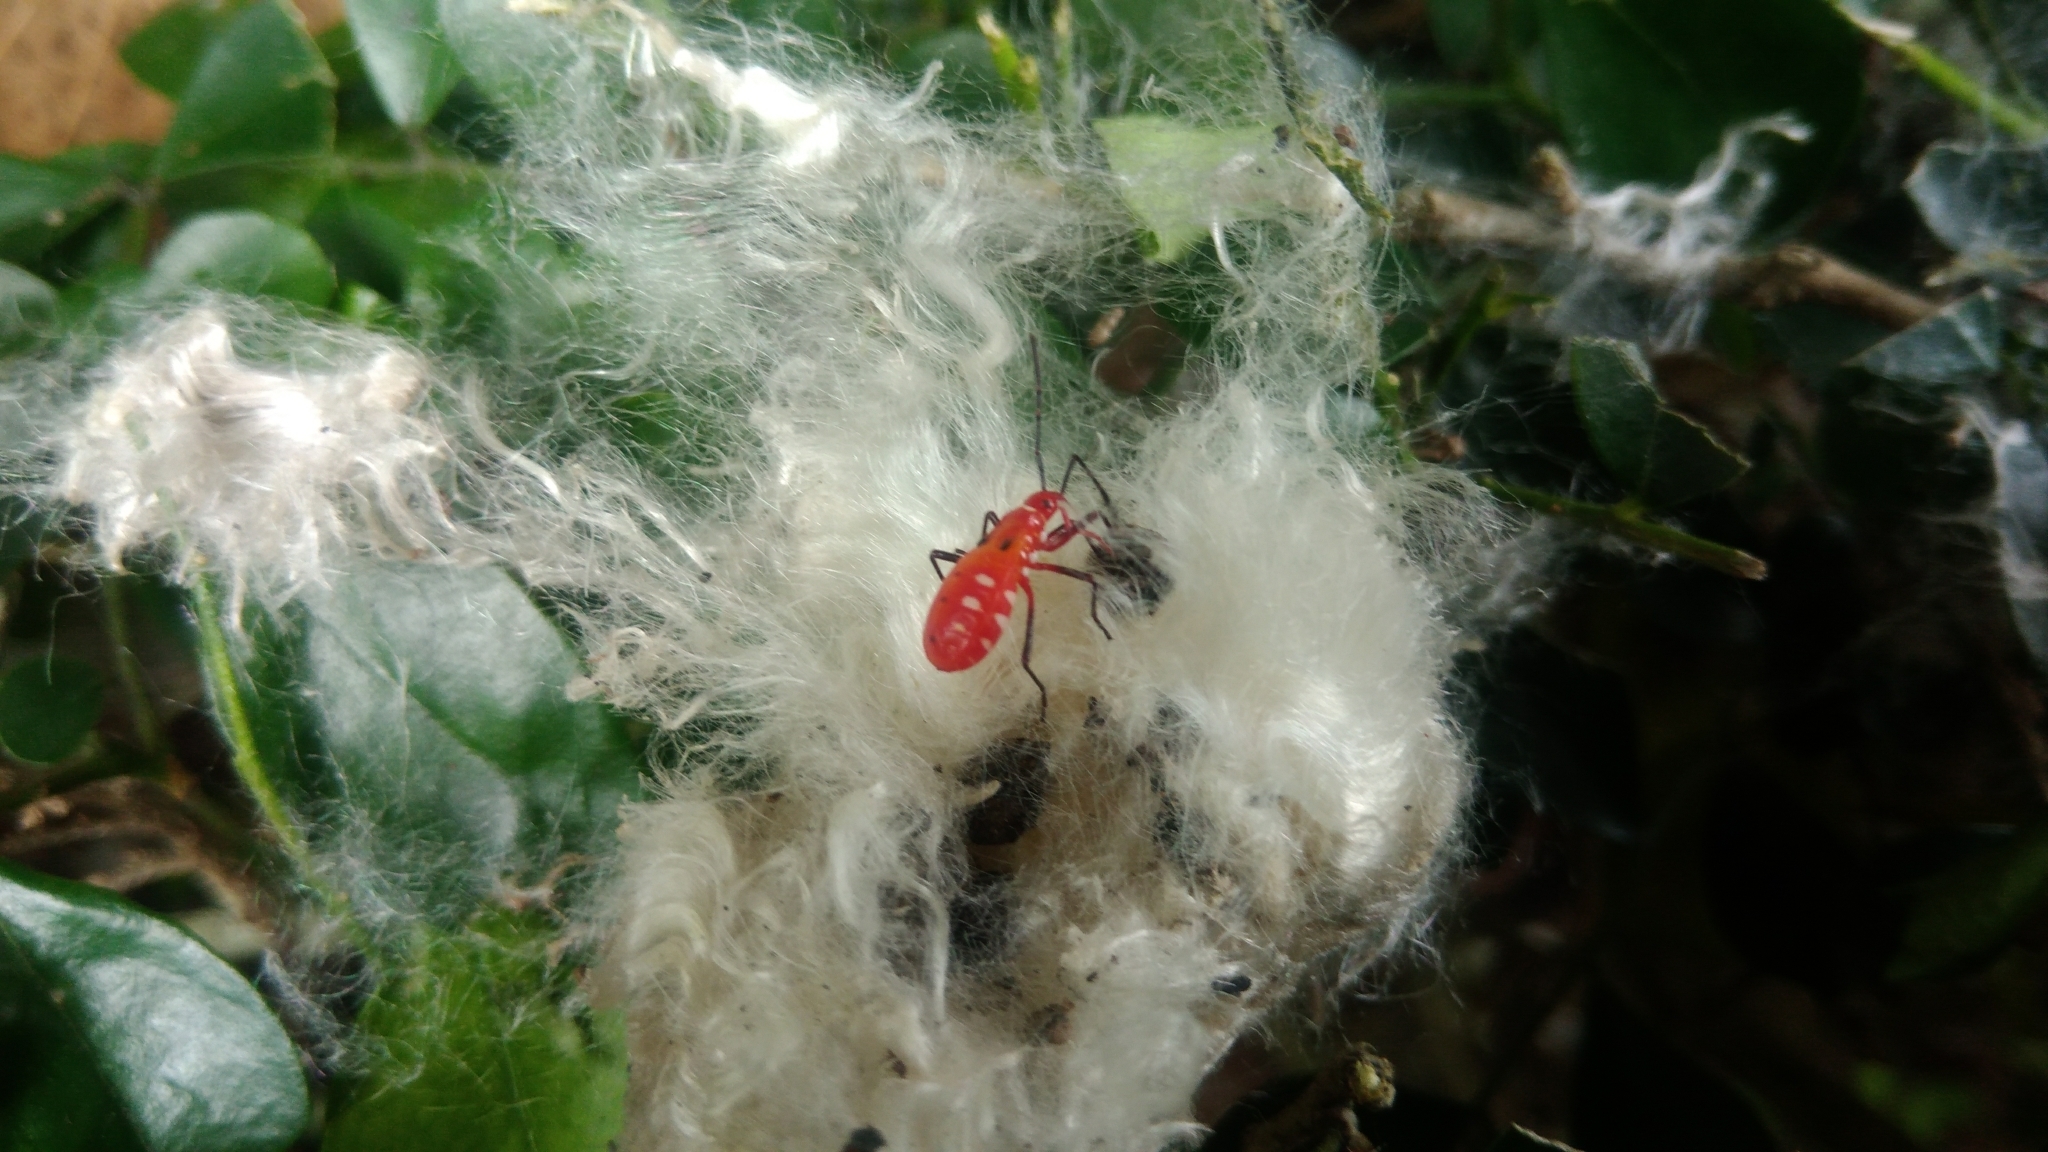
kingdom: Animalia
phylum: Arthropoda
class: Insecta
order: Hemiptera
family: Pyrrhocoridae
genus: Dysdercus
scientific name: Dysdercus cingulatus
